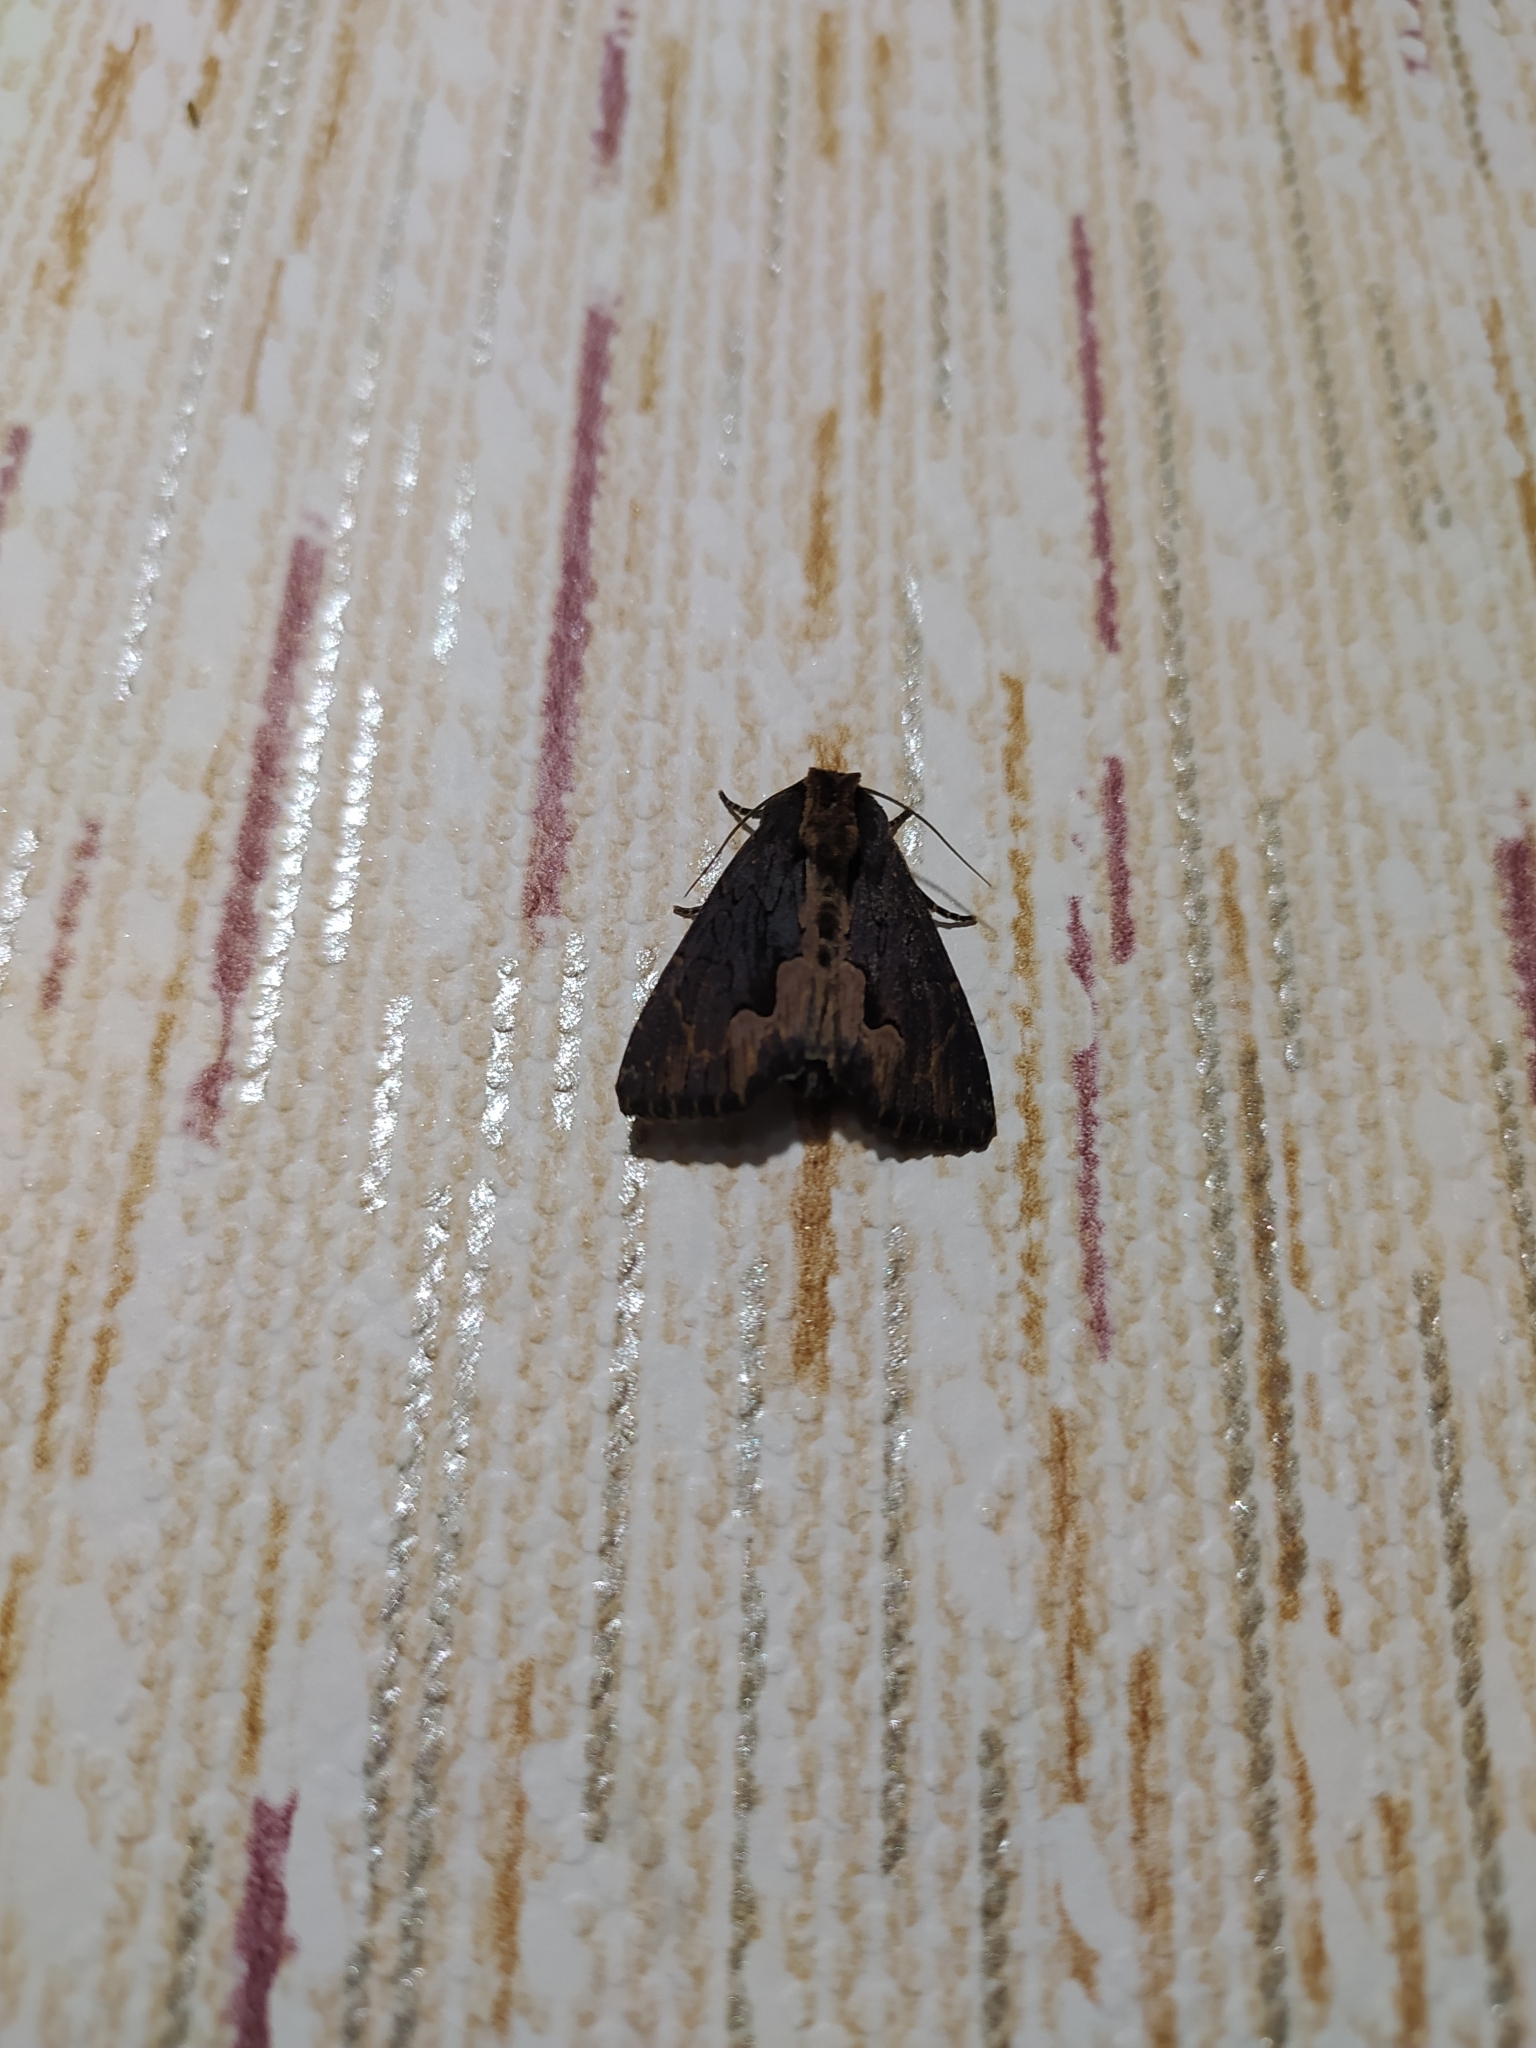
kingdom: Animalia
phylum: Arthropoda
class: Insecta
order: Lepidoptera
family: Noctuidae
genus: Dypterygia
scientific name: Dypterygia scabriuscula
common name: Bird's wing
